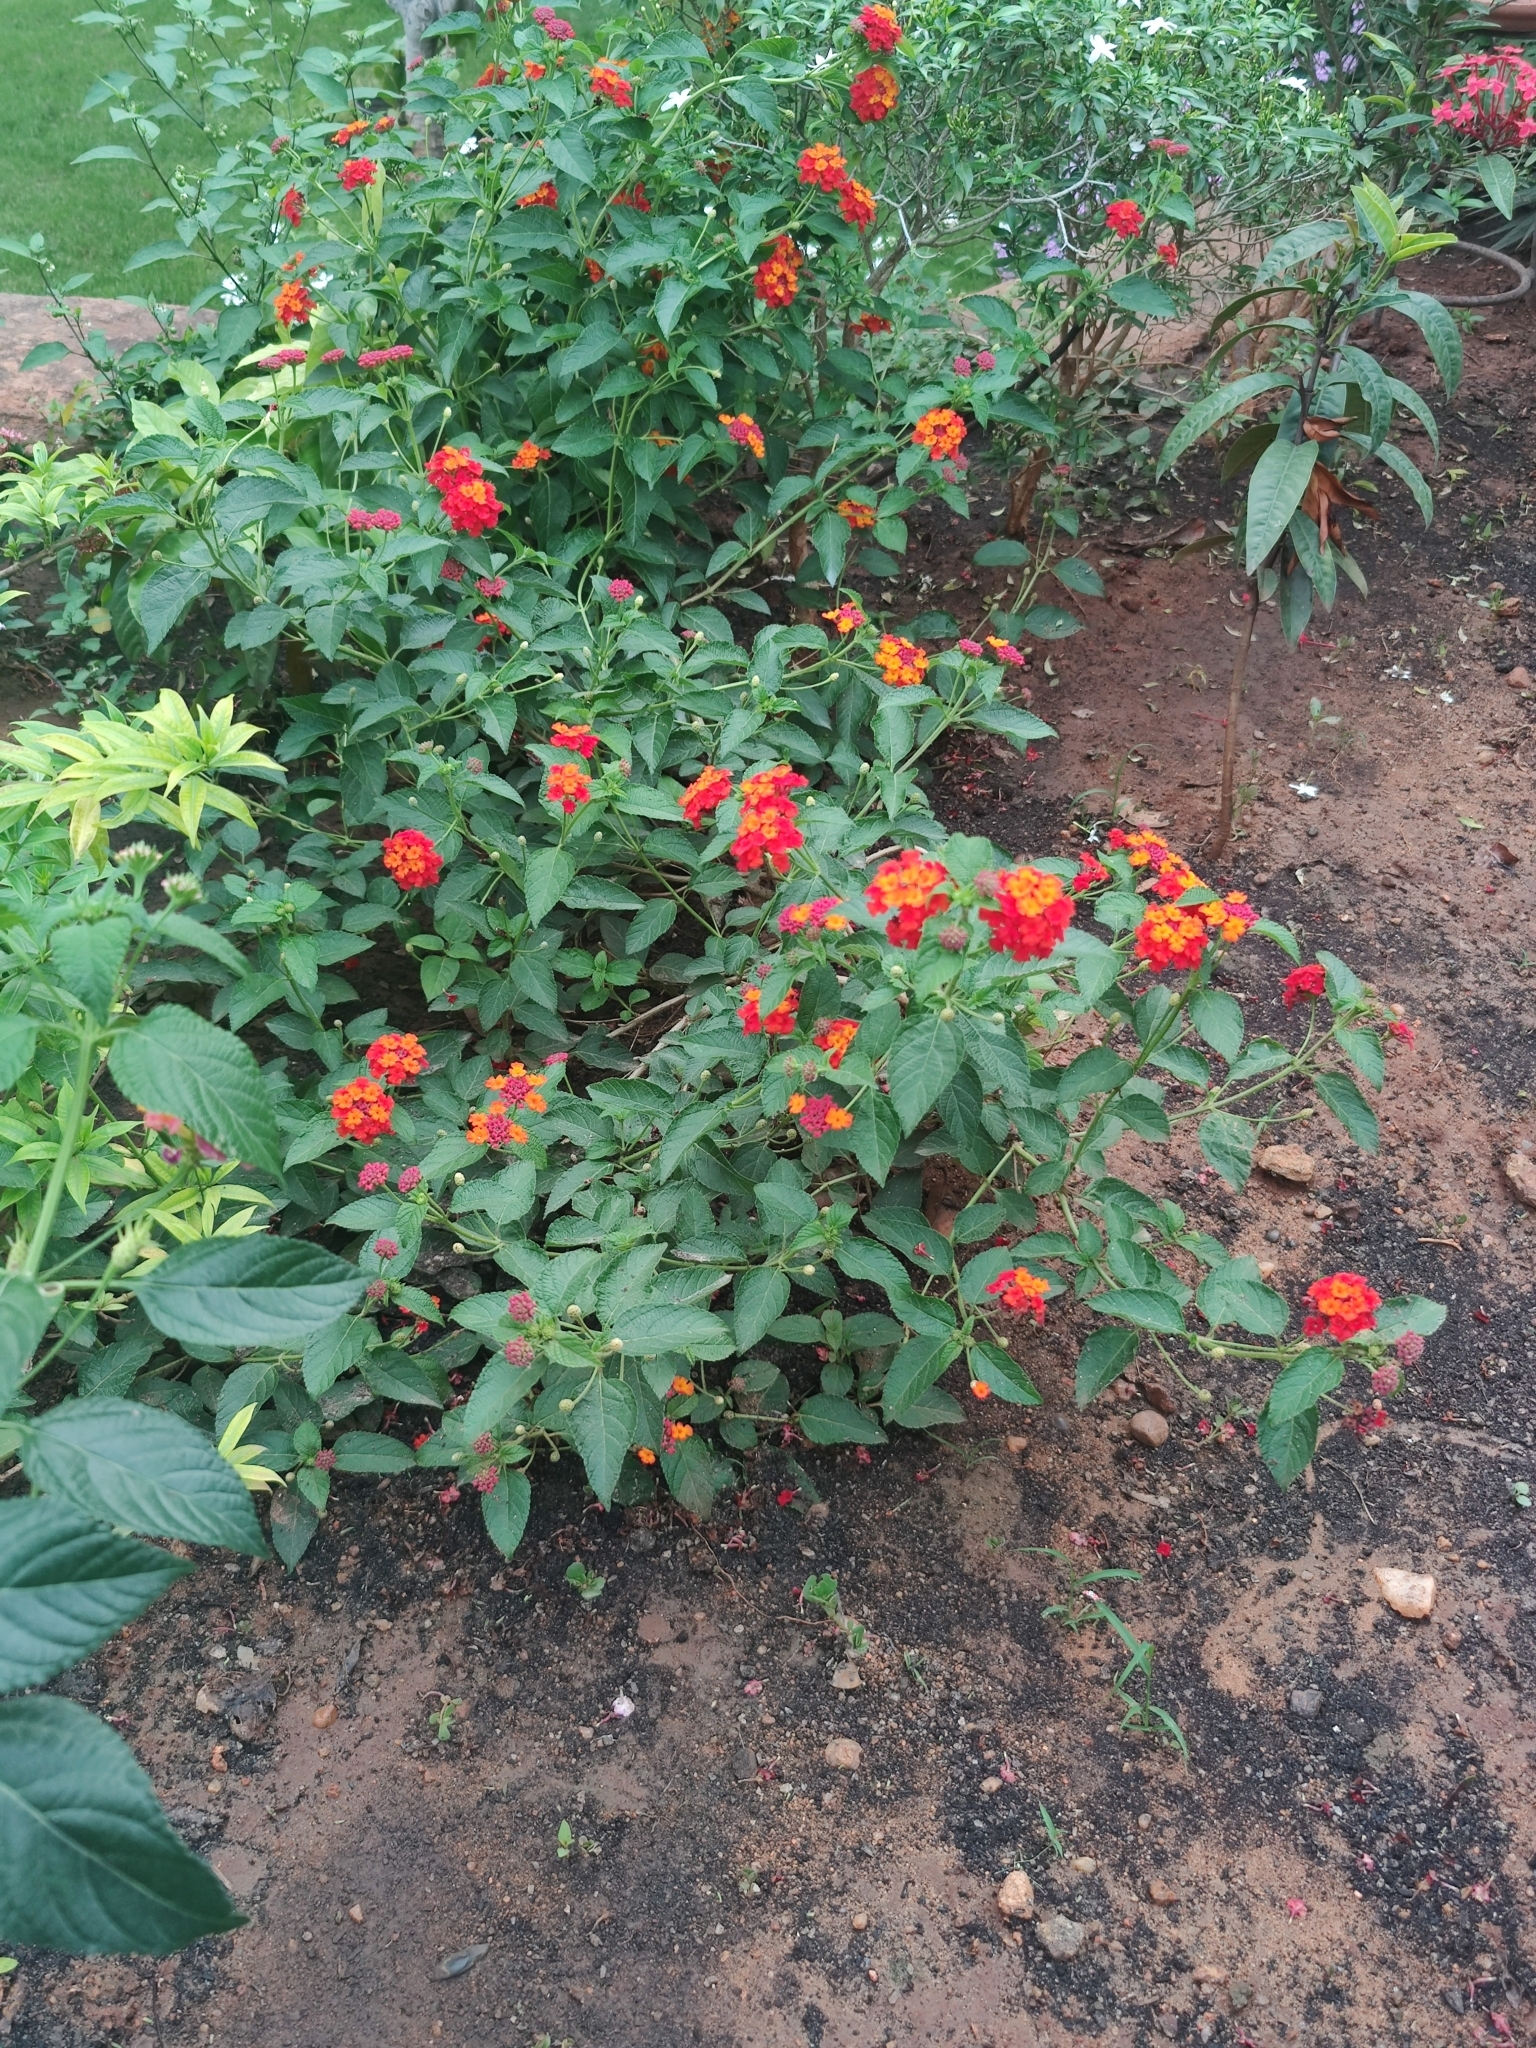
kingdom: Plantae
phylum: Tracheophyta
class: Magnoliopsida
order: Lamiales
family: Verbenaceae
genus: Lantana
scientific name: Lantana camara
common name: Lantana
